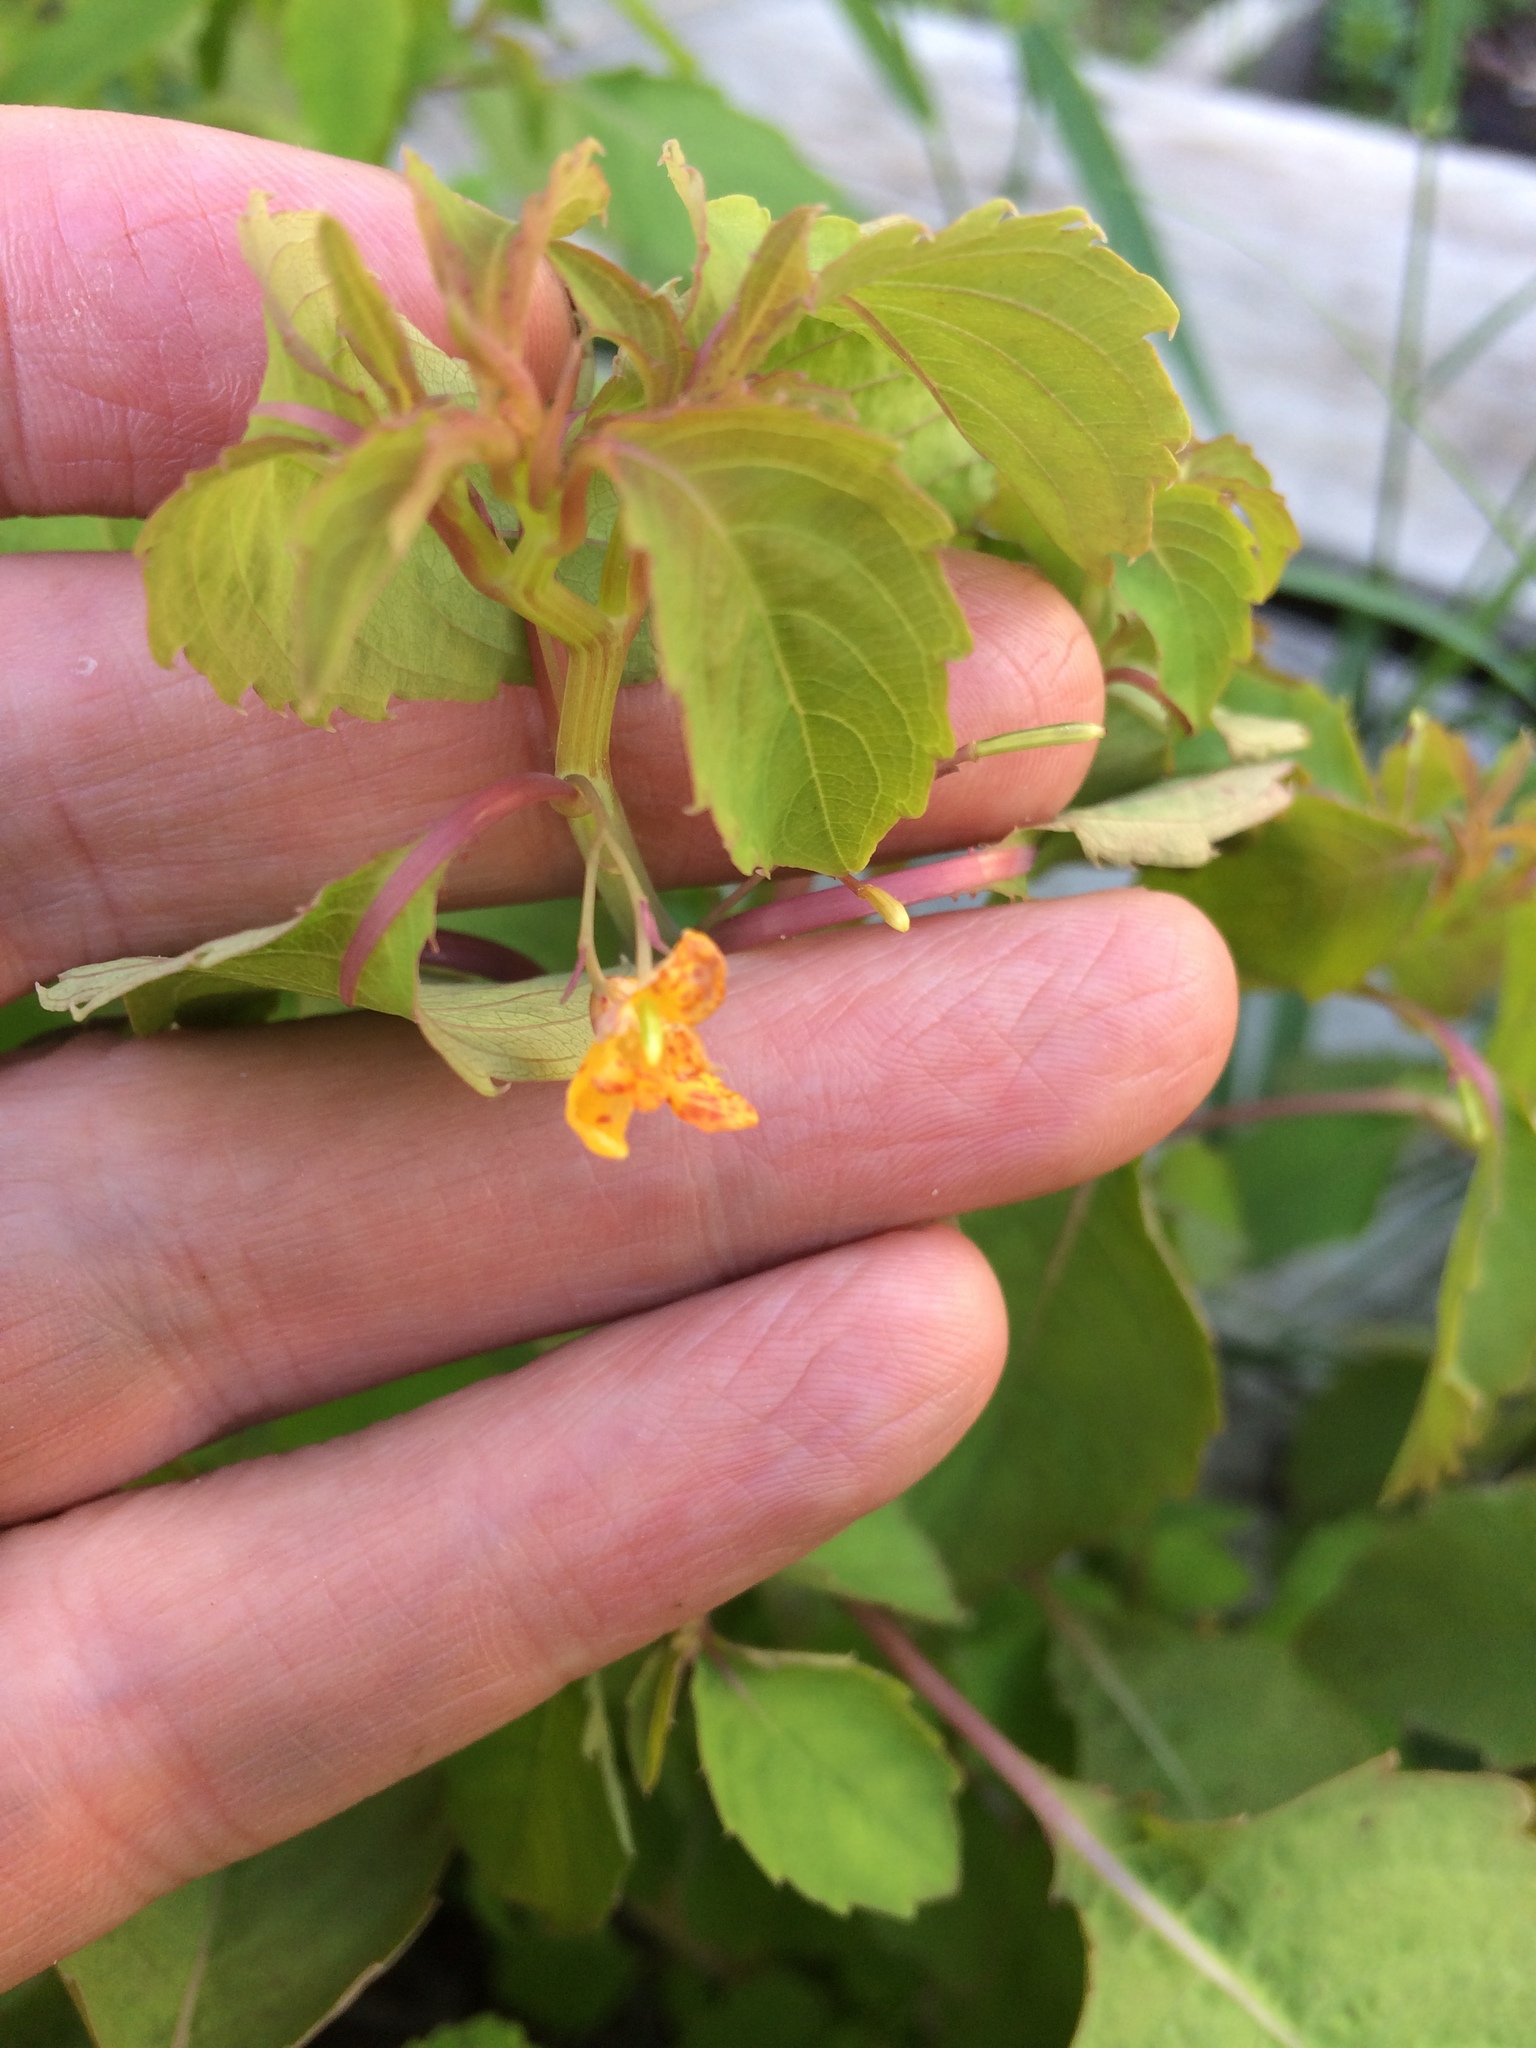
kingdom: Plantae
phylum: Tracheophyta
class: Magnoliopsida
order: Ericales
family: Balsaminaceae
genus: Impatiens
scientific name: Impatiens capensis
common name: Orange balsam
